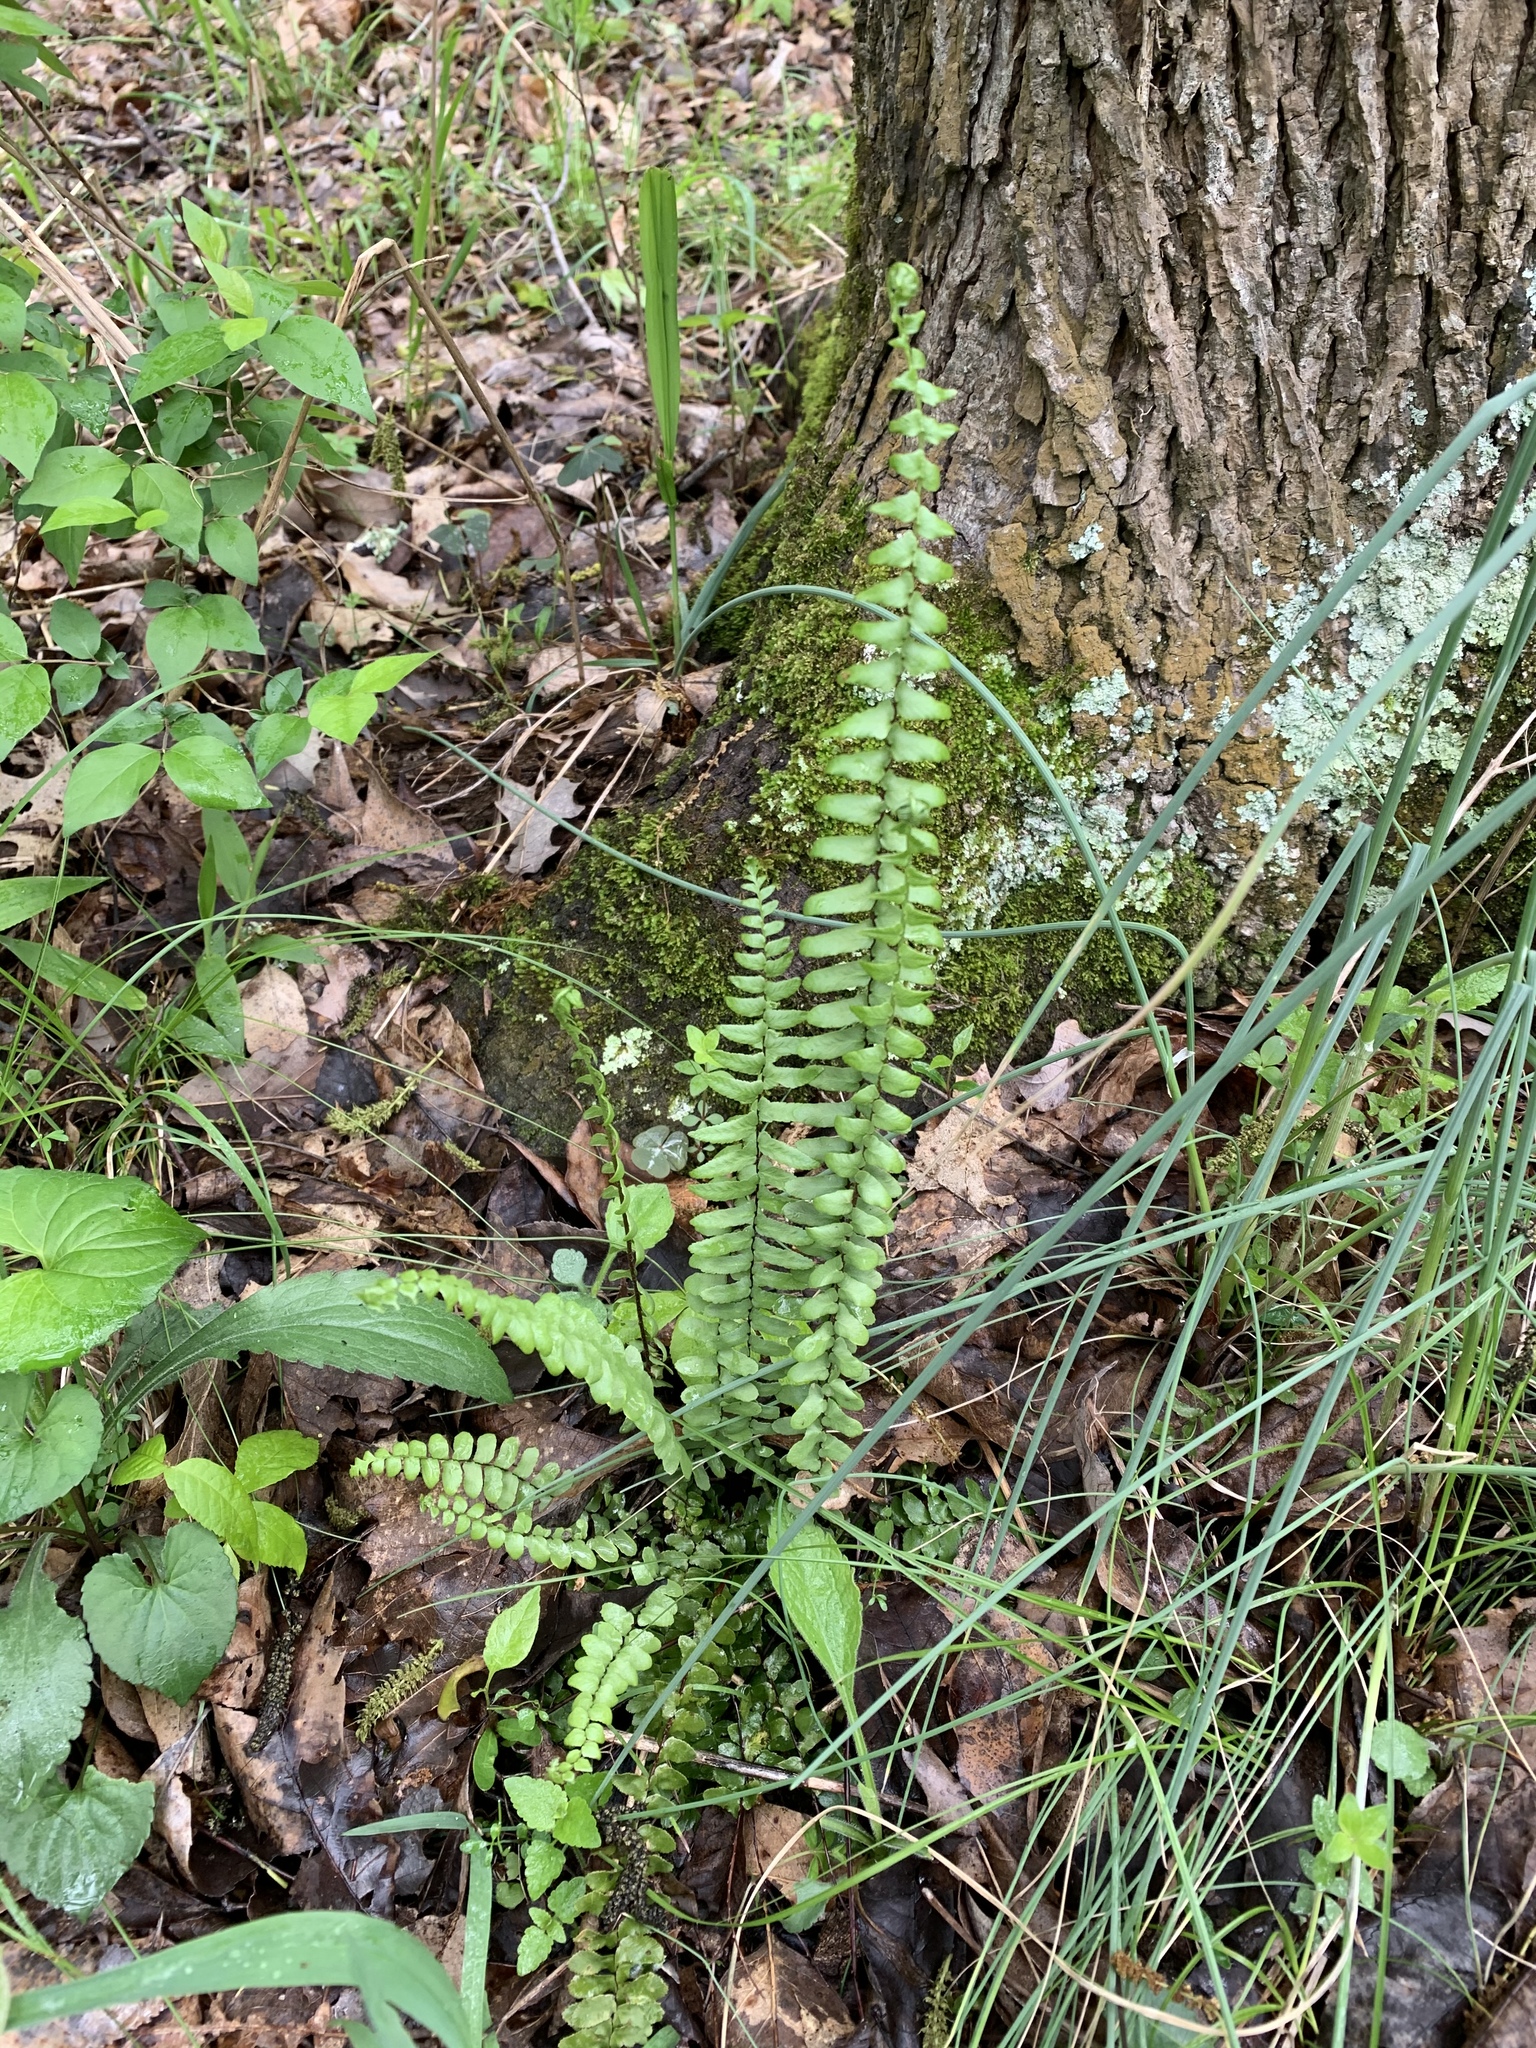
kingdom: Plantae
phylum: Tracheophyta
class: Polypodiopsida
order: Polypodiales
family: Aspleniaceae
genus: Asplenium
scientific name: Asplenium platyneuron
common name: Ebony spleenwort
